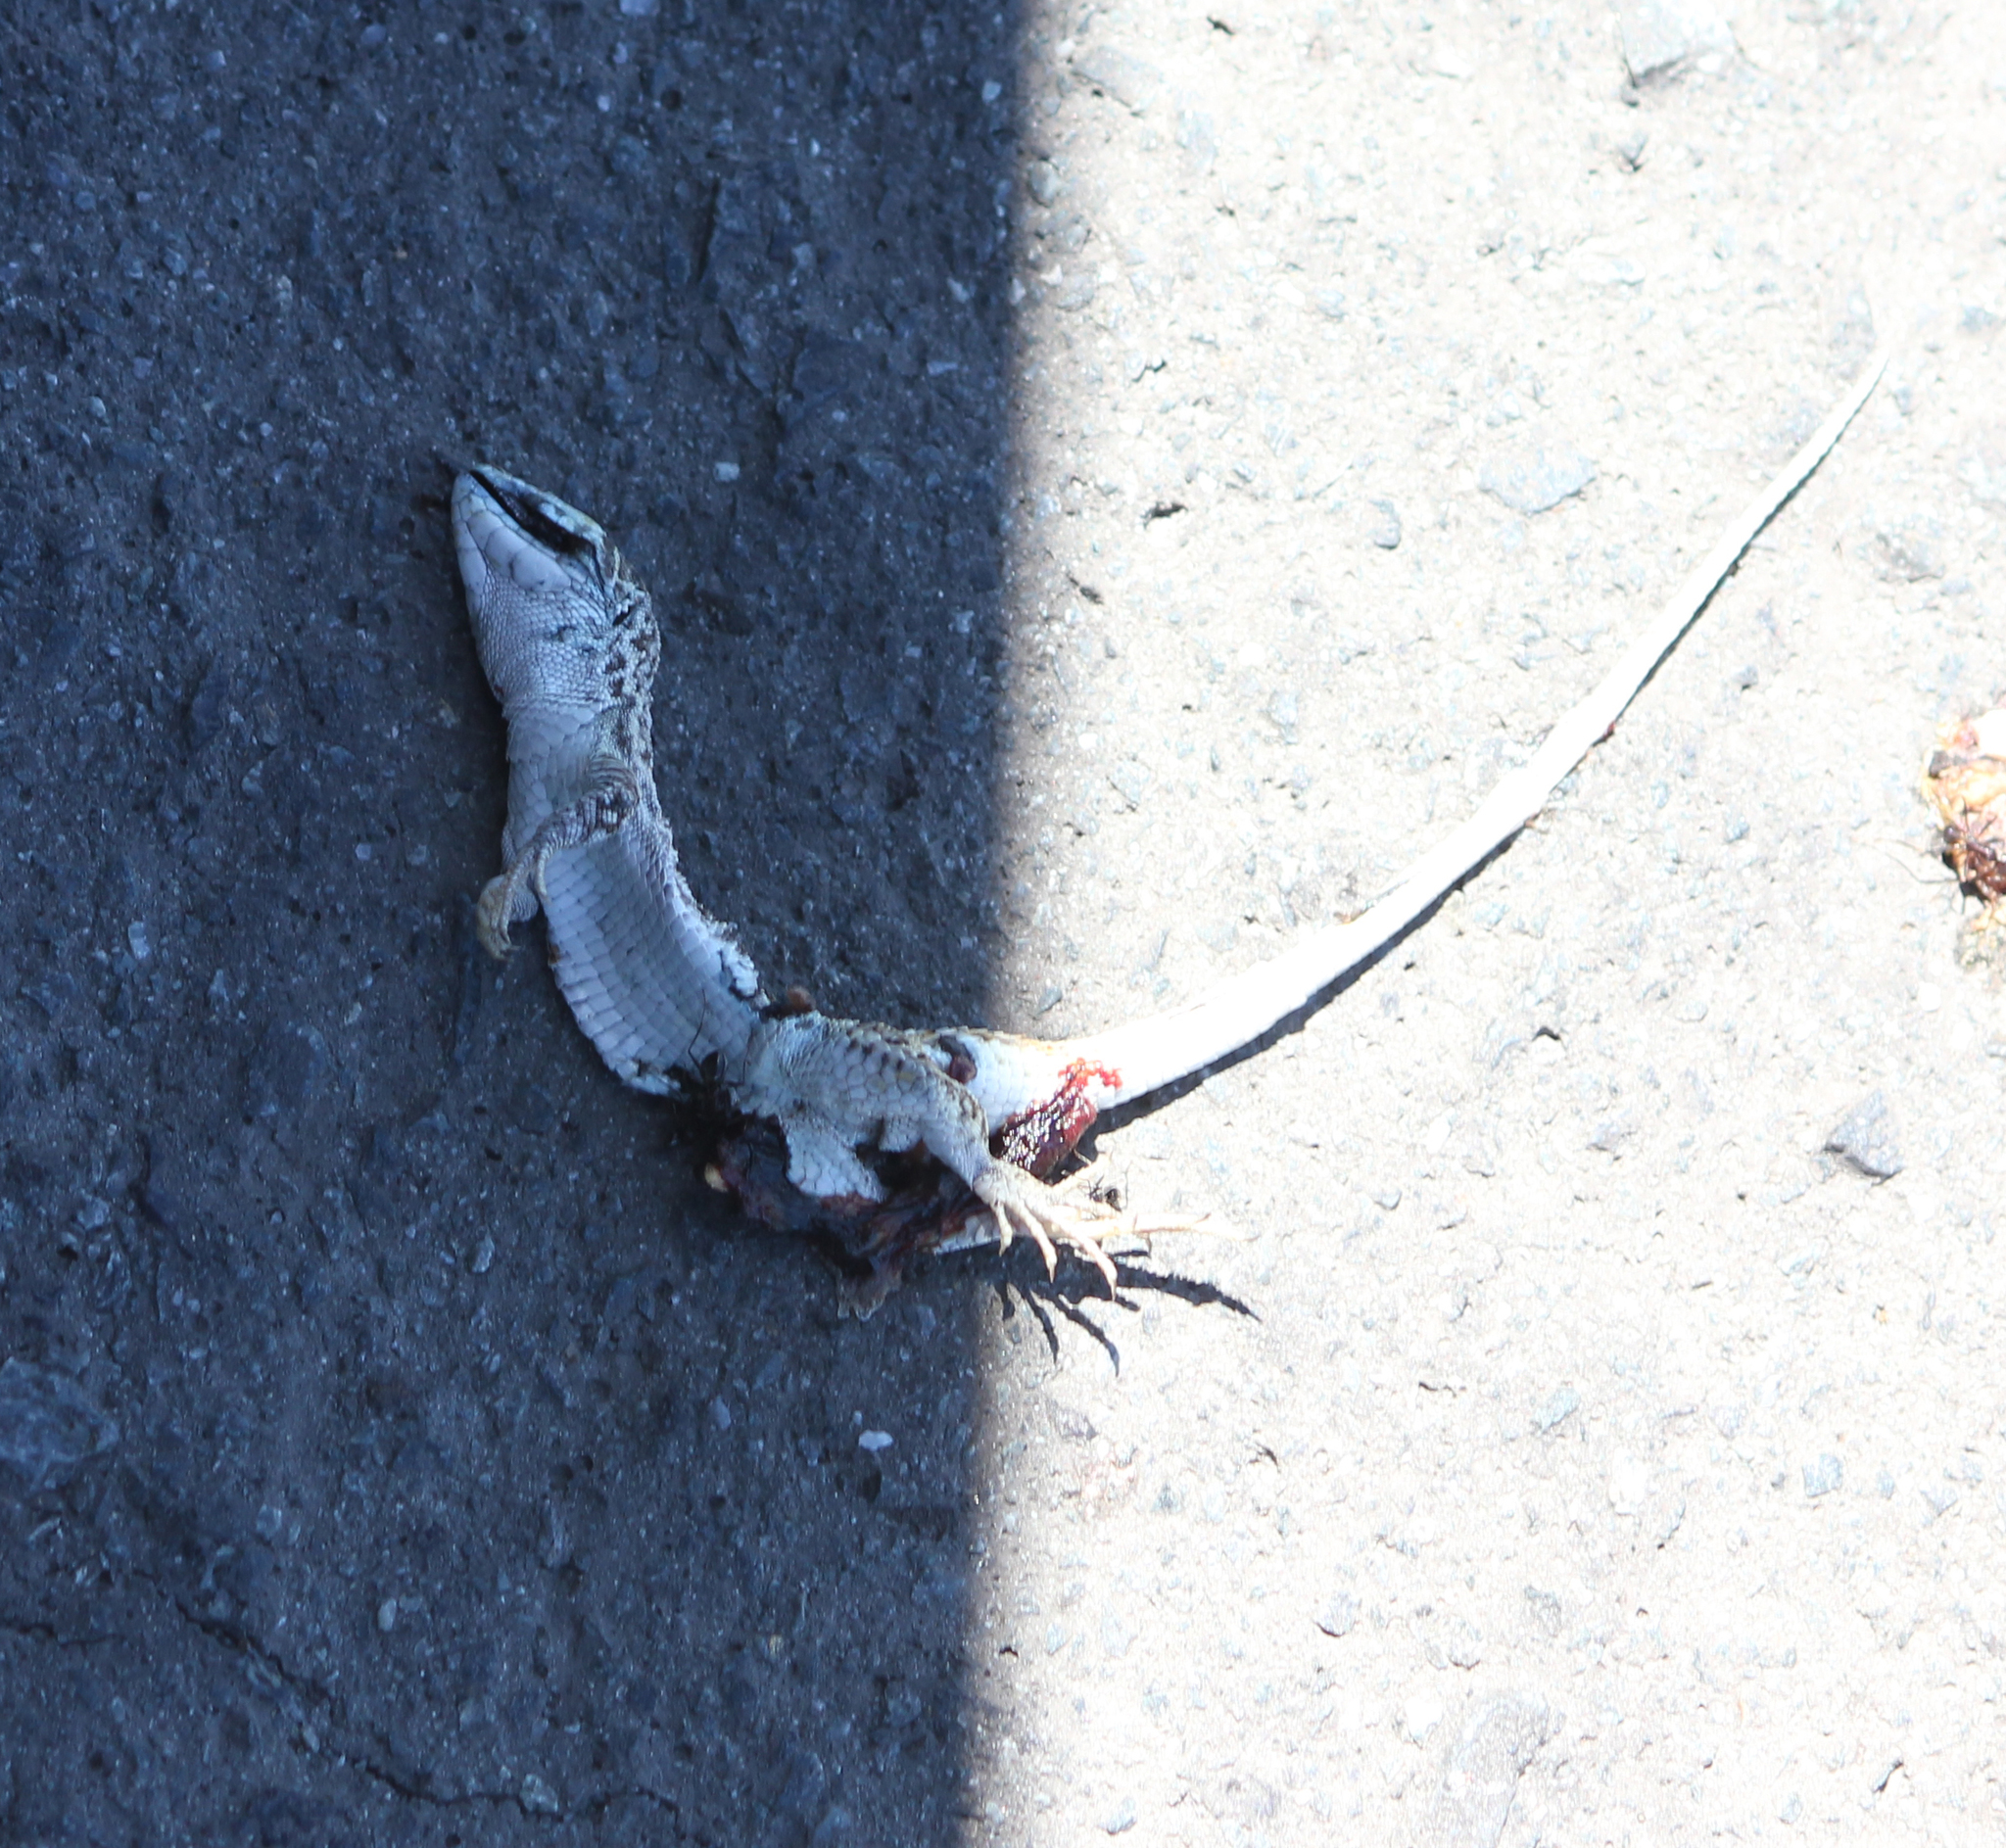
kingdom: Animalia
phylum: Chordata
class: Squamata
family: Lacertidae
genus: Meroles
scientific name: Meroles knoxii
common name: Knox's desert lizard
